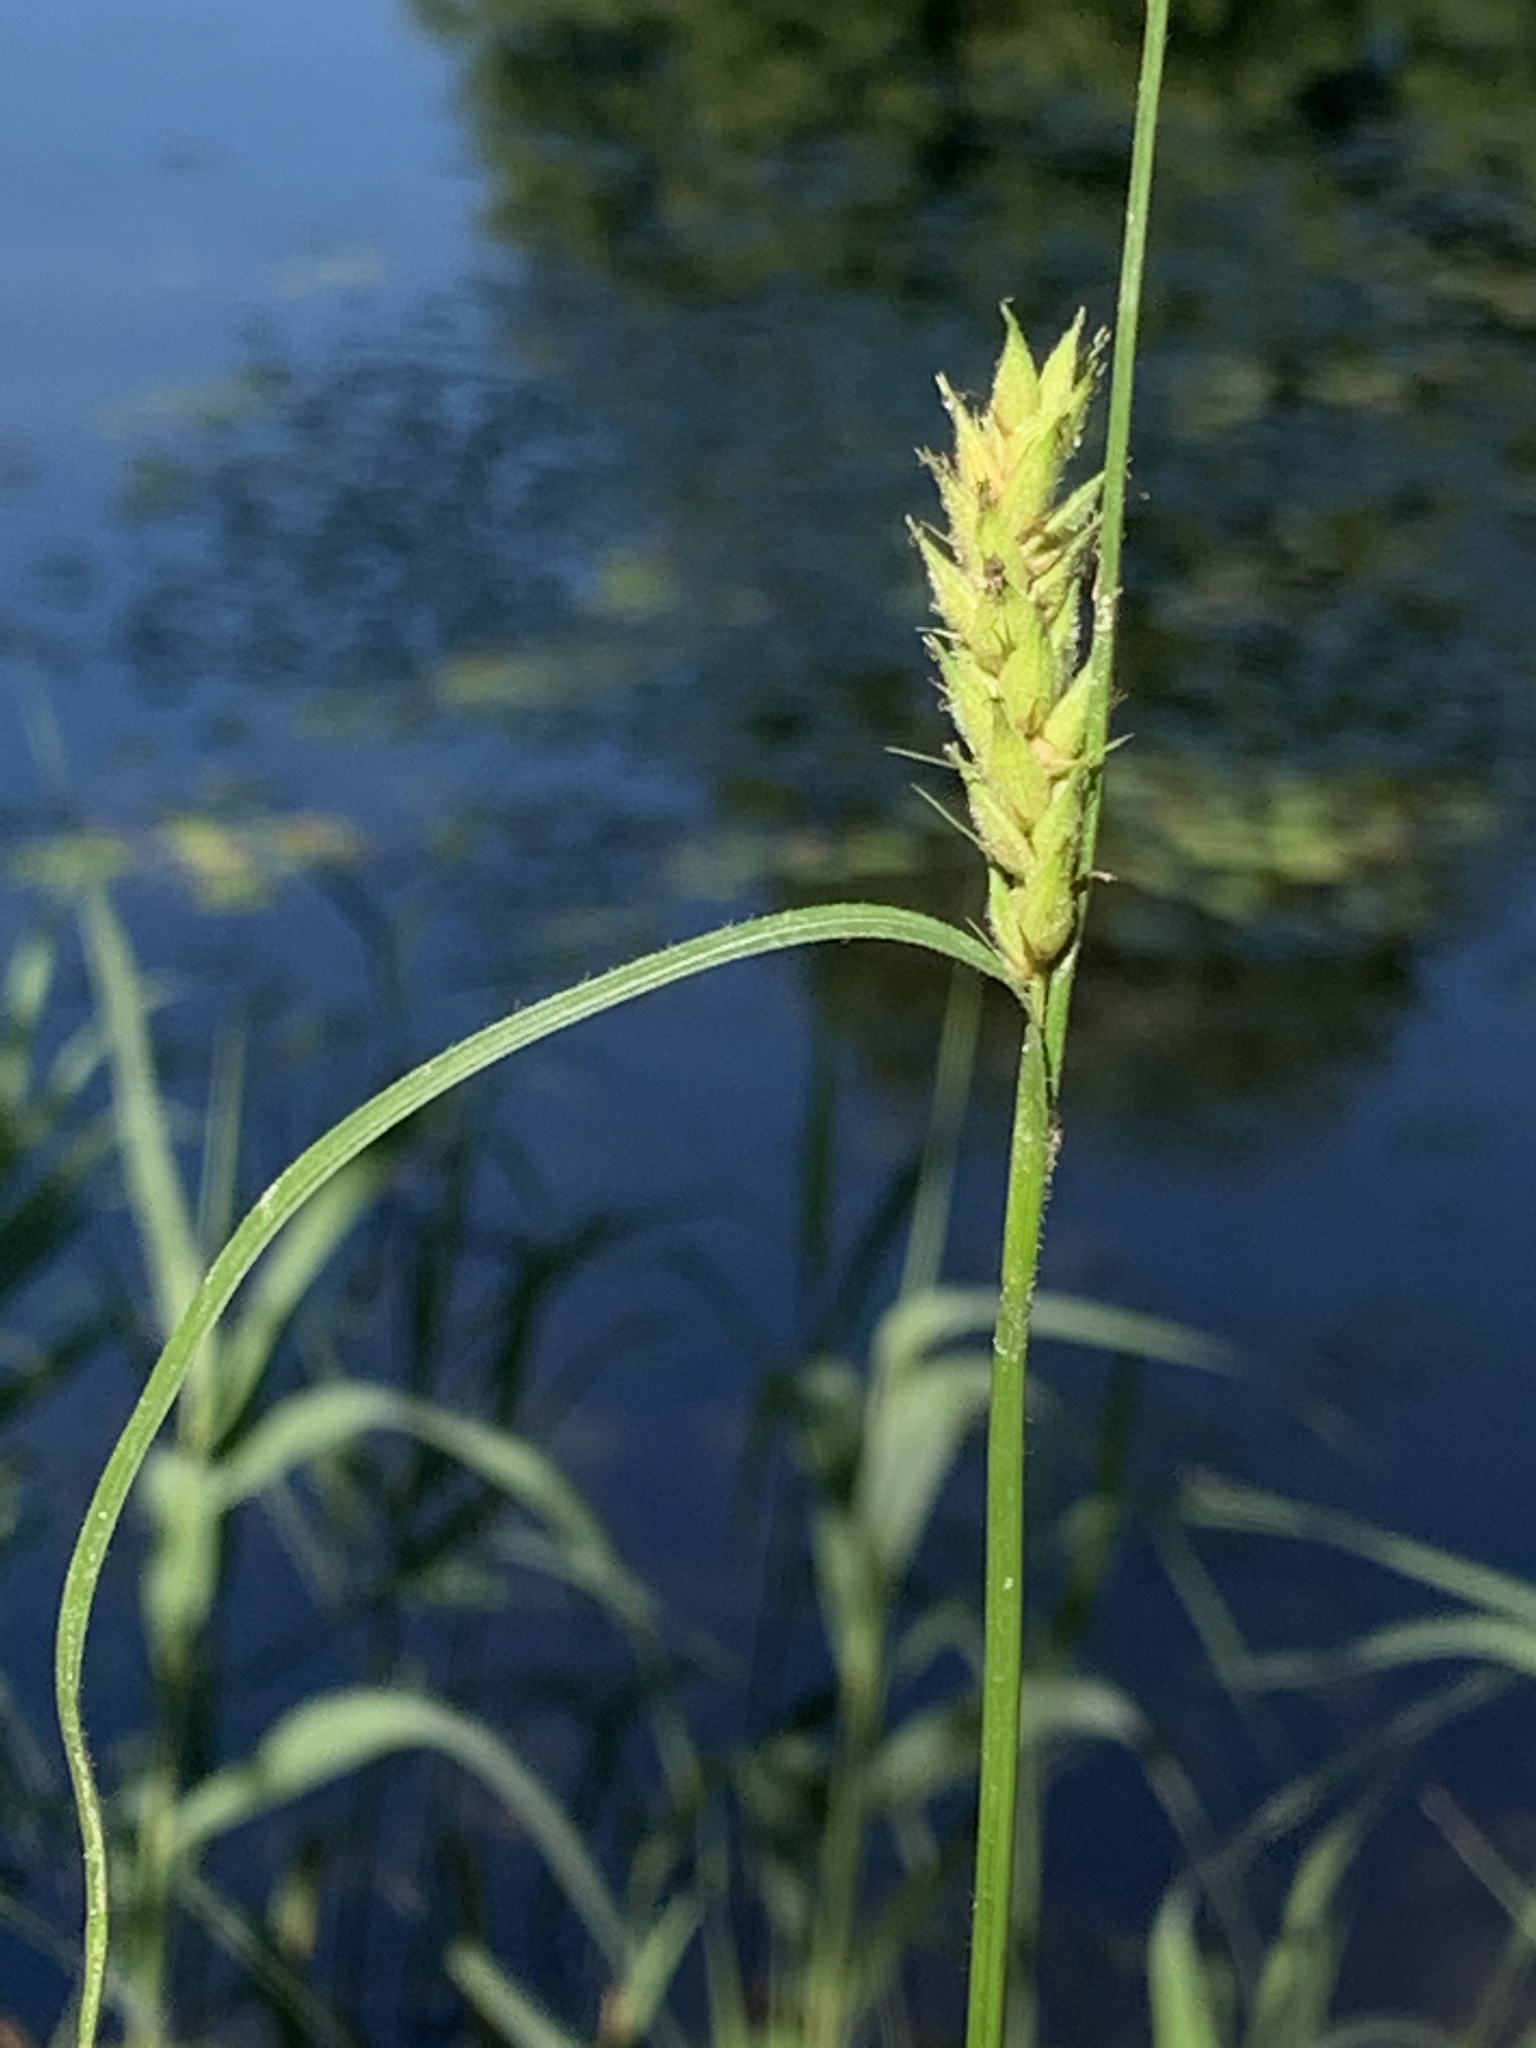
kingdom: Plantae
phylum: Tracheophyta
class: Liliopsida
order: Poales
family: Cyperaceae
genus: Carex
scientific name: Carex hirta
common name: Hairy sedge
